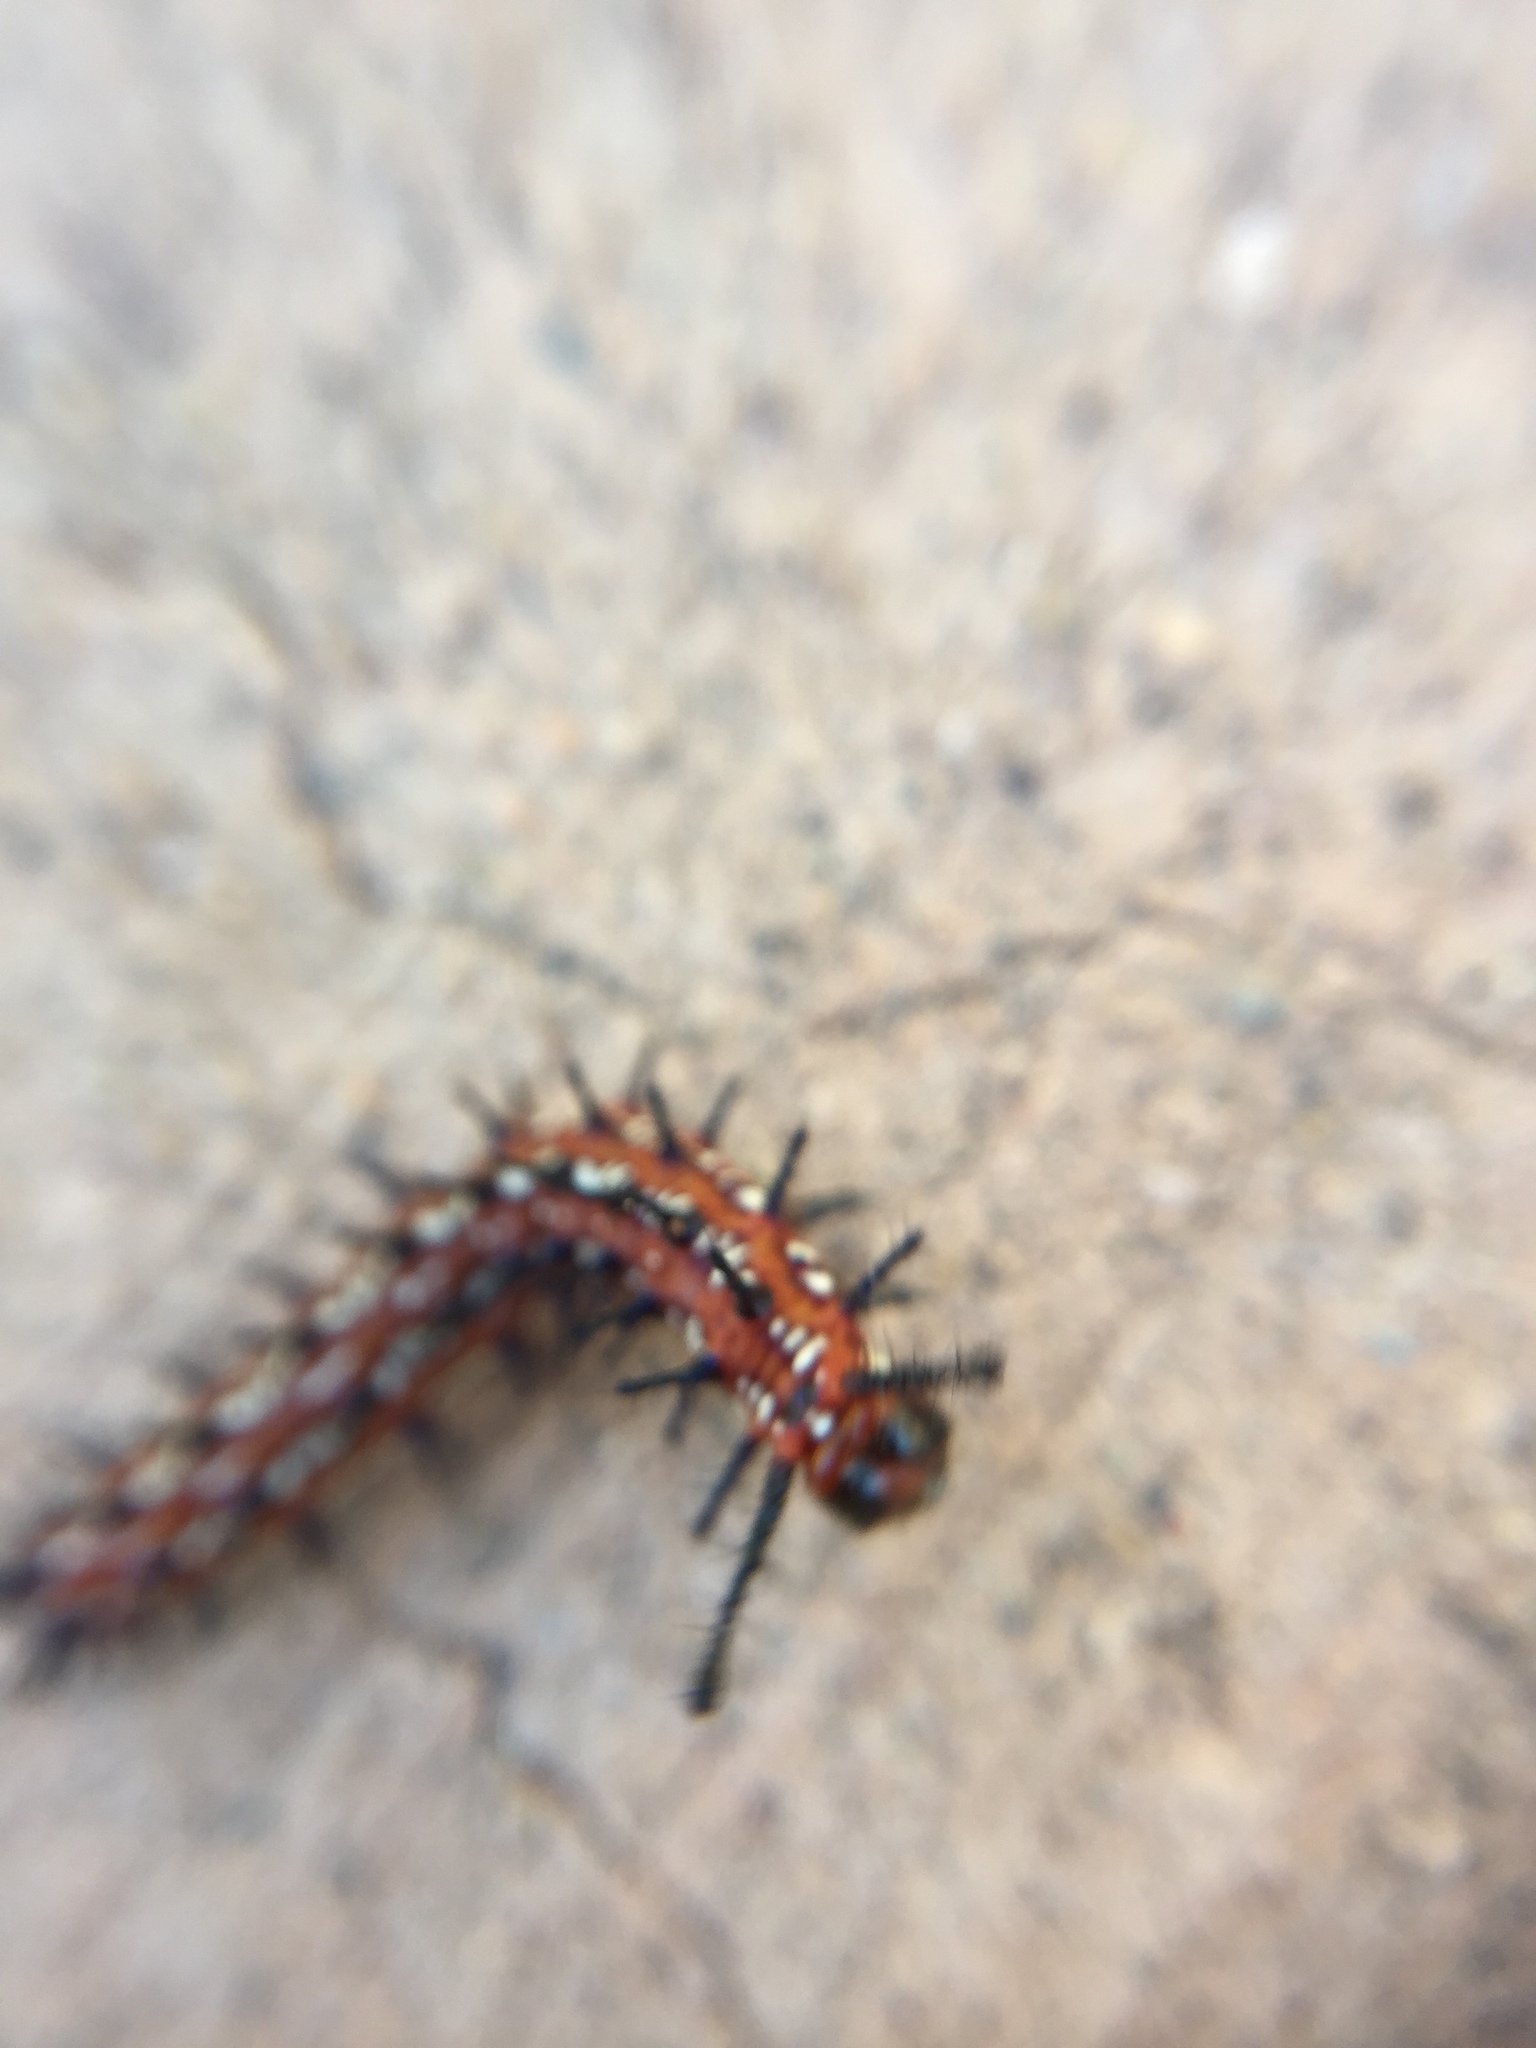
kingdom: Animalia
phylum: Arthropoda
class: Insecta
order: Lepidoptera
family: Nymphalidae
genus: Euptoieta
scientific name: Euptoieta claudia
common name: Variegated fritillary
